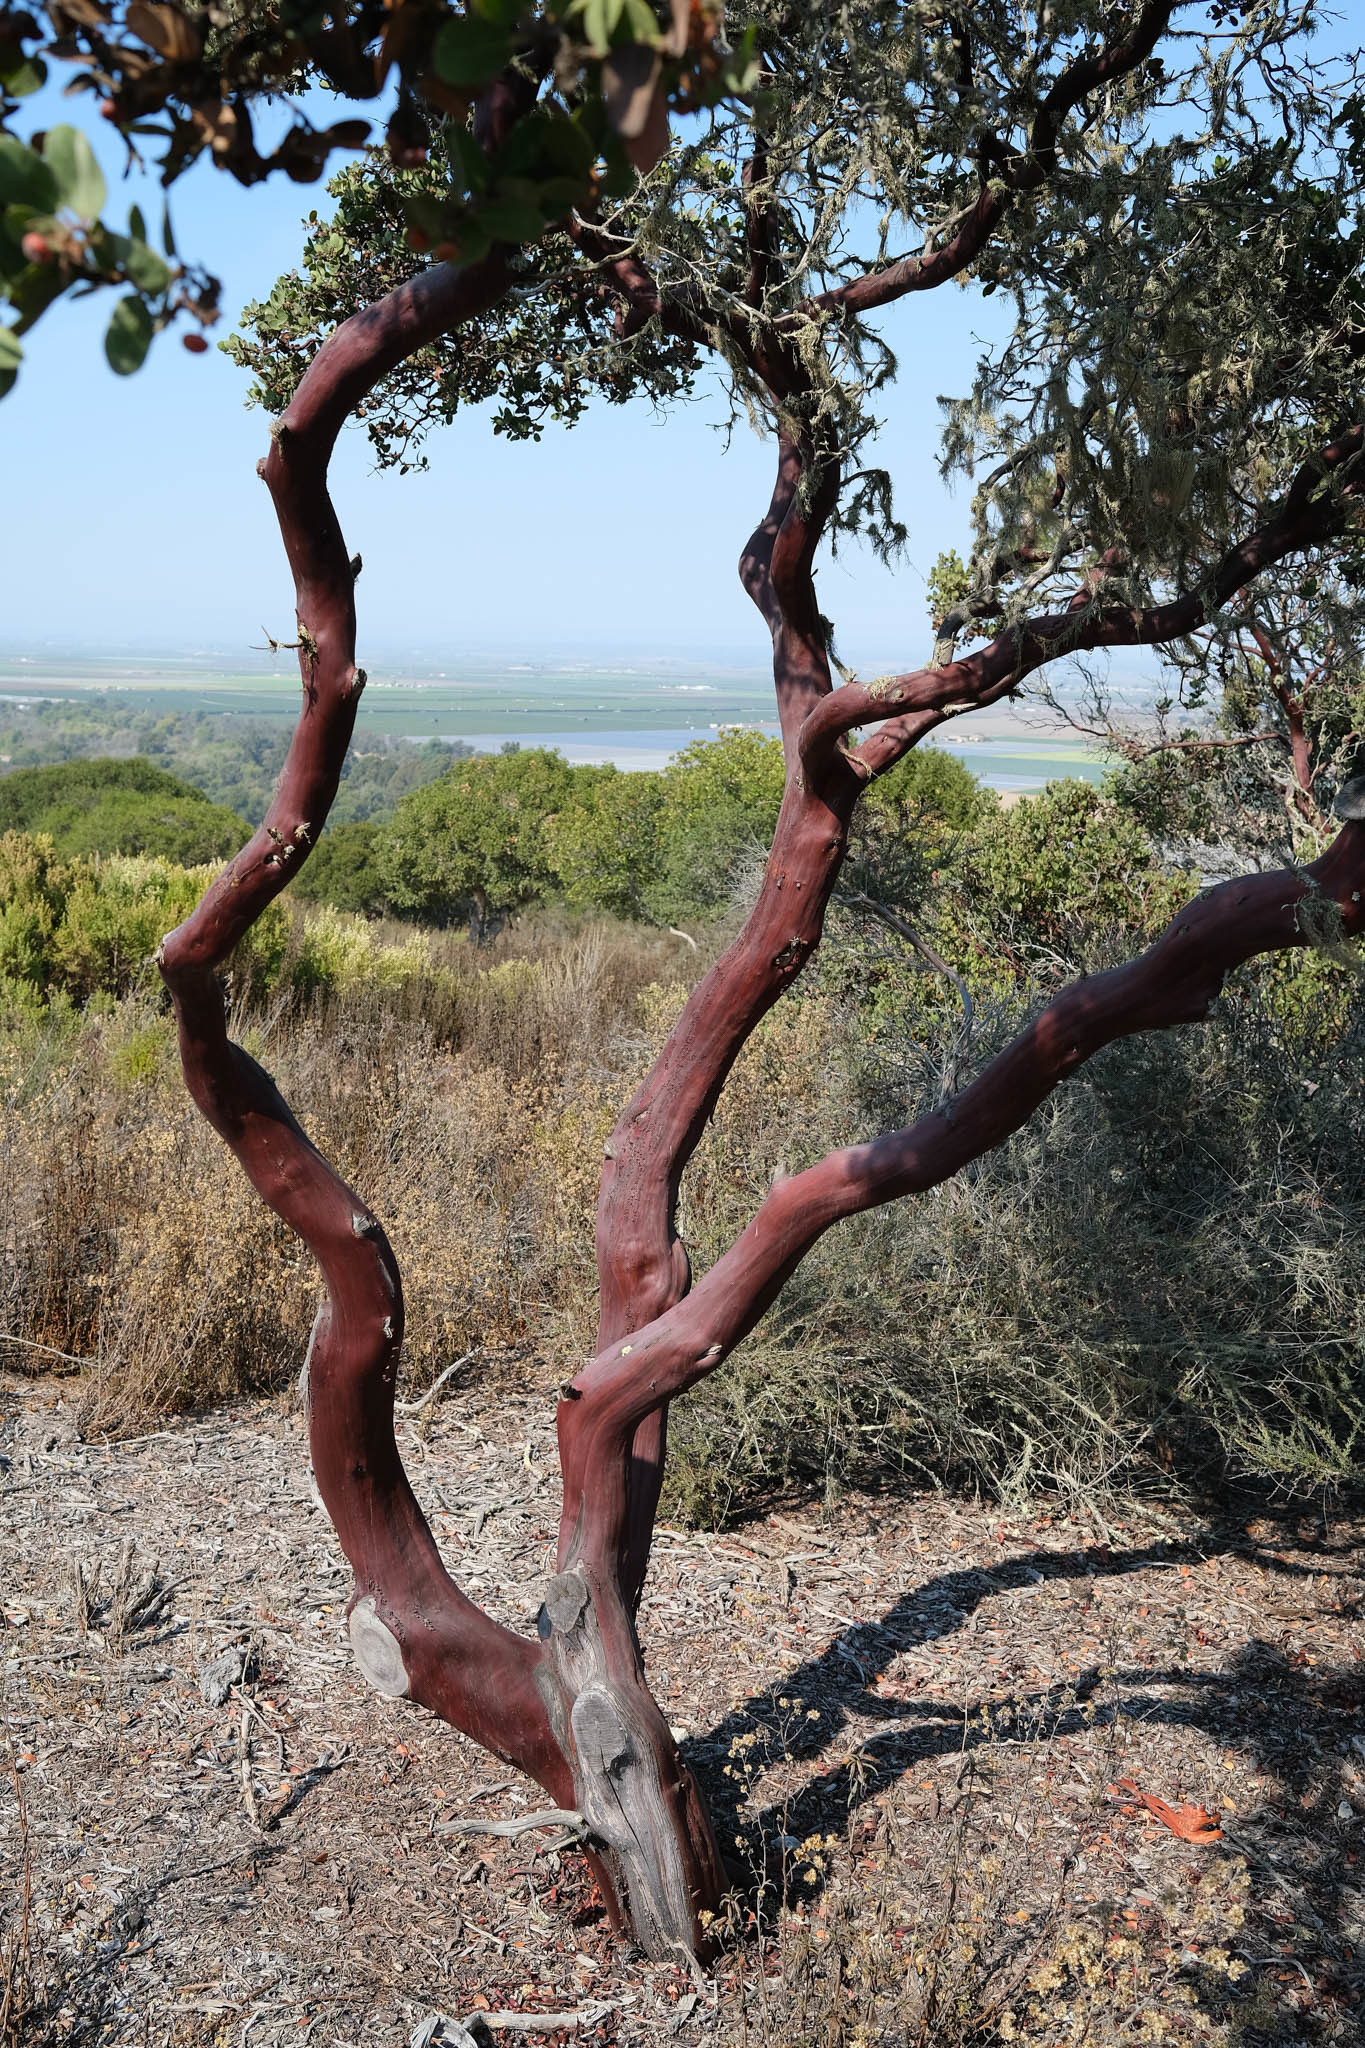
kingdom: Plantae
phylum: Tracheophyta
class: Magnoliopsida
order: Ericales
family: Ericaceae
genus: Arctostaphylos
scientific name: Arctostaphylos montereyensis
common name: Monterey manzanita
